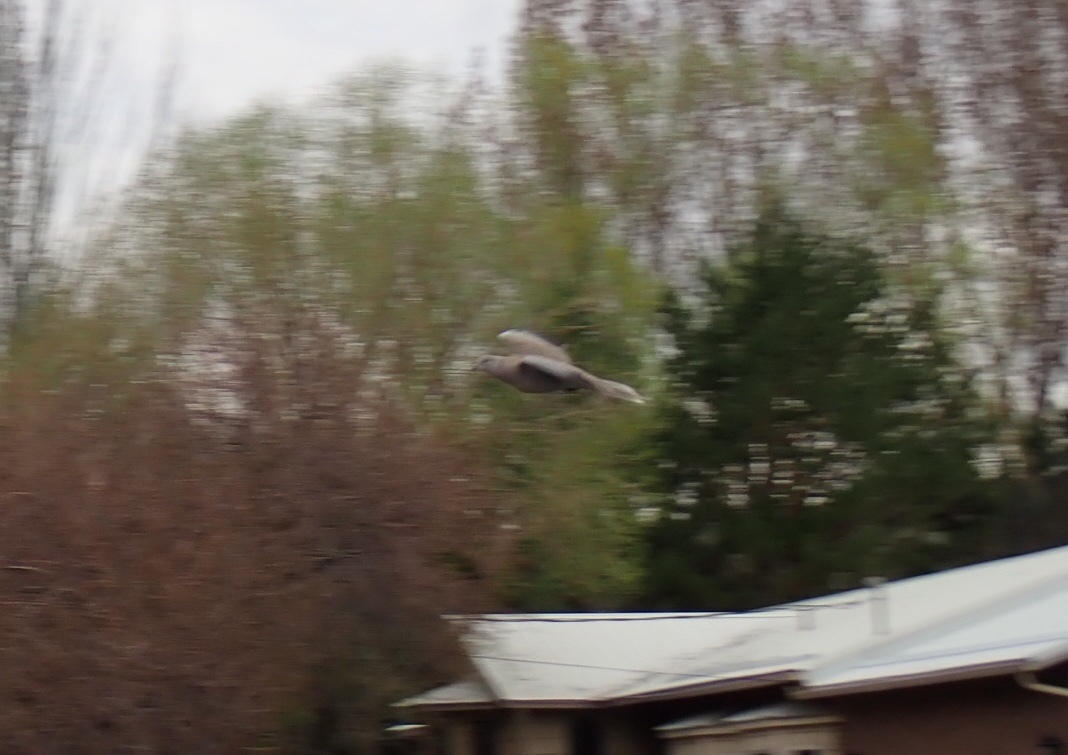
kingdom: Animalia
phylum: Chordata
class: Aves
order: Columbiformes
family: Columbidae
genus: Streptopelia
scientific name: Streptopelia decaocto
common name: Eurasian collared dove
